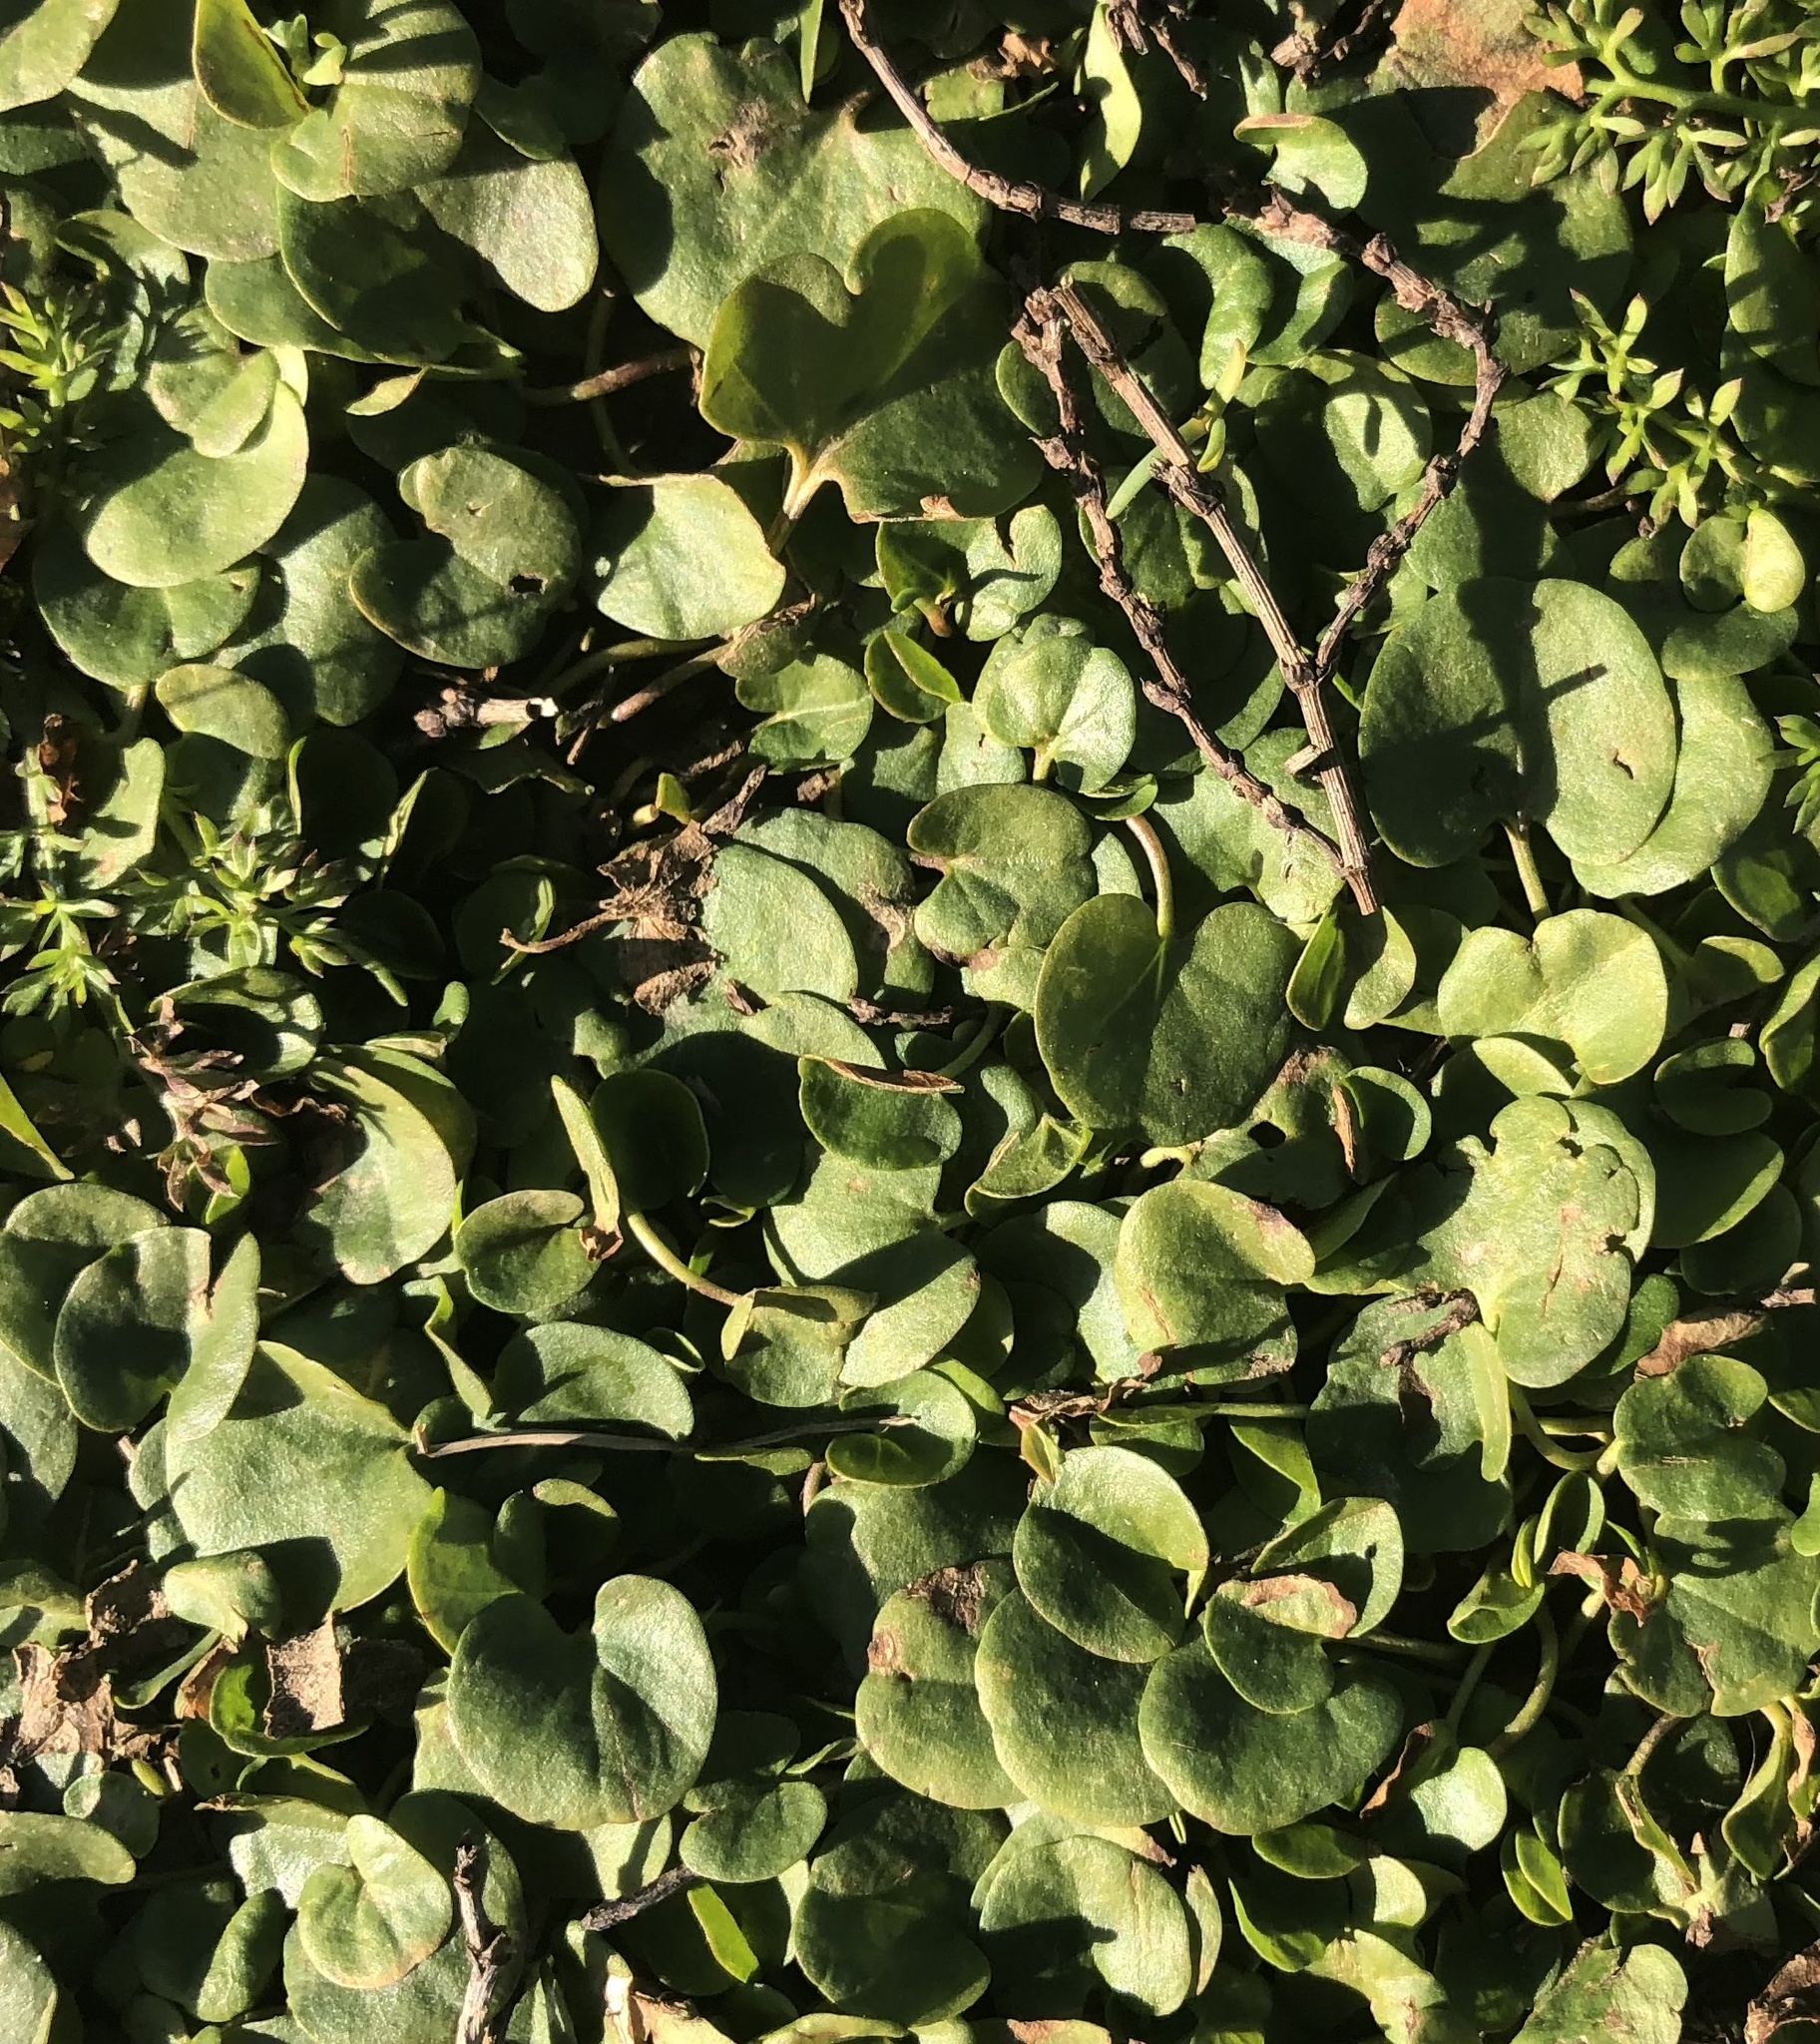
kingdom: Plantae
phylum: Tracheophyta
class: Magnoliopsida
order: Solanales
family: Convolvulaceae
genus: Dichondra
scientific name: Dichondra carolinensis
